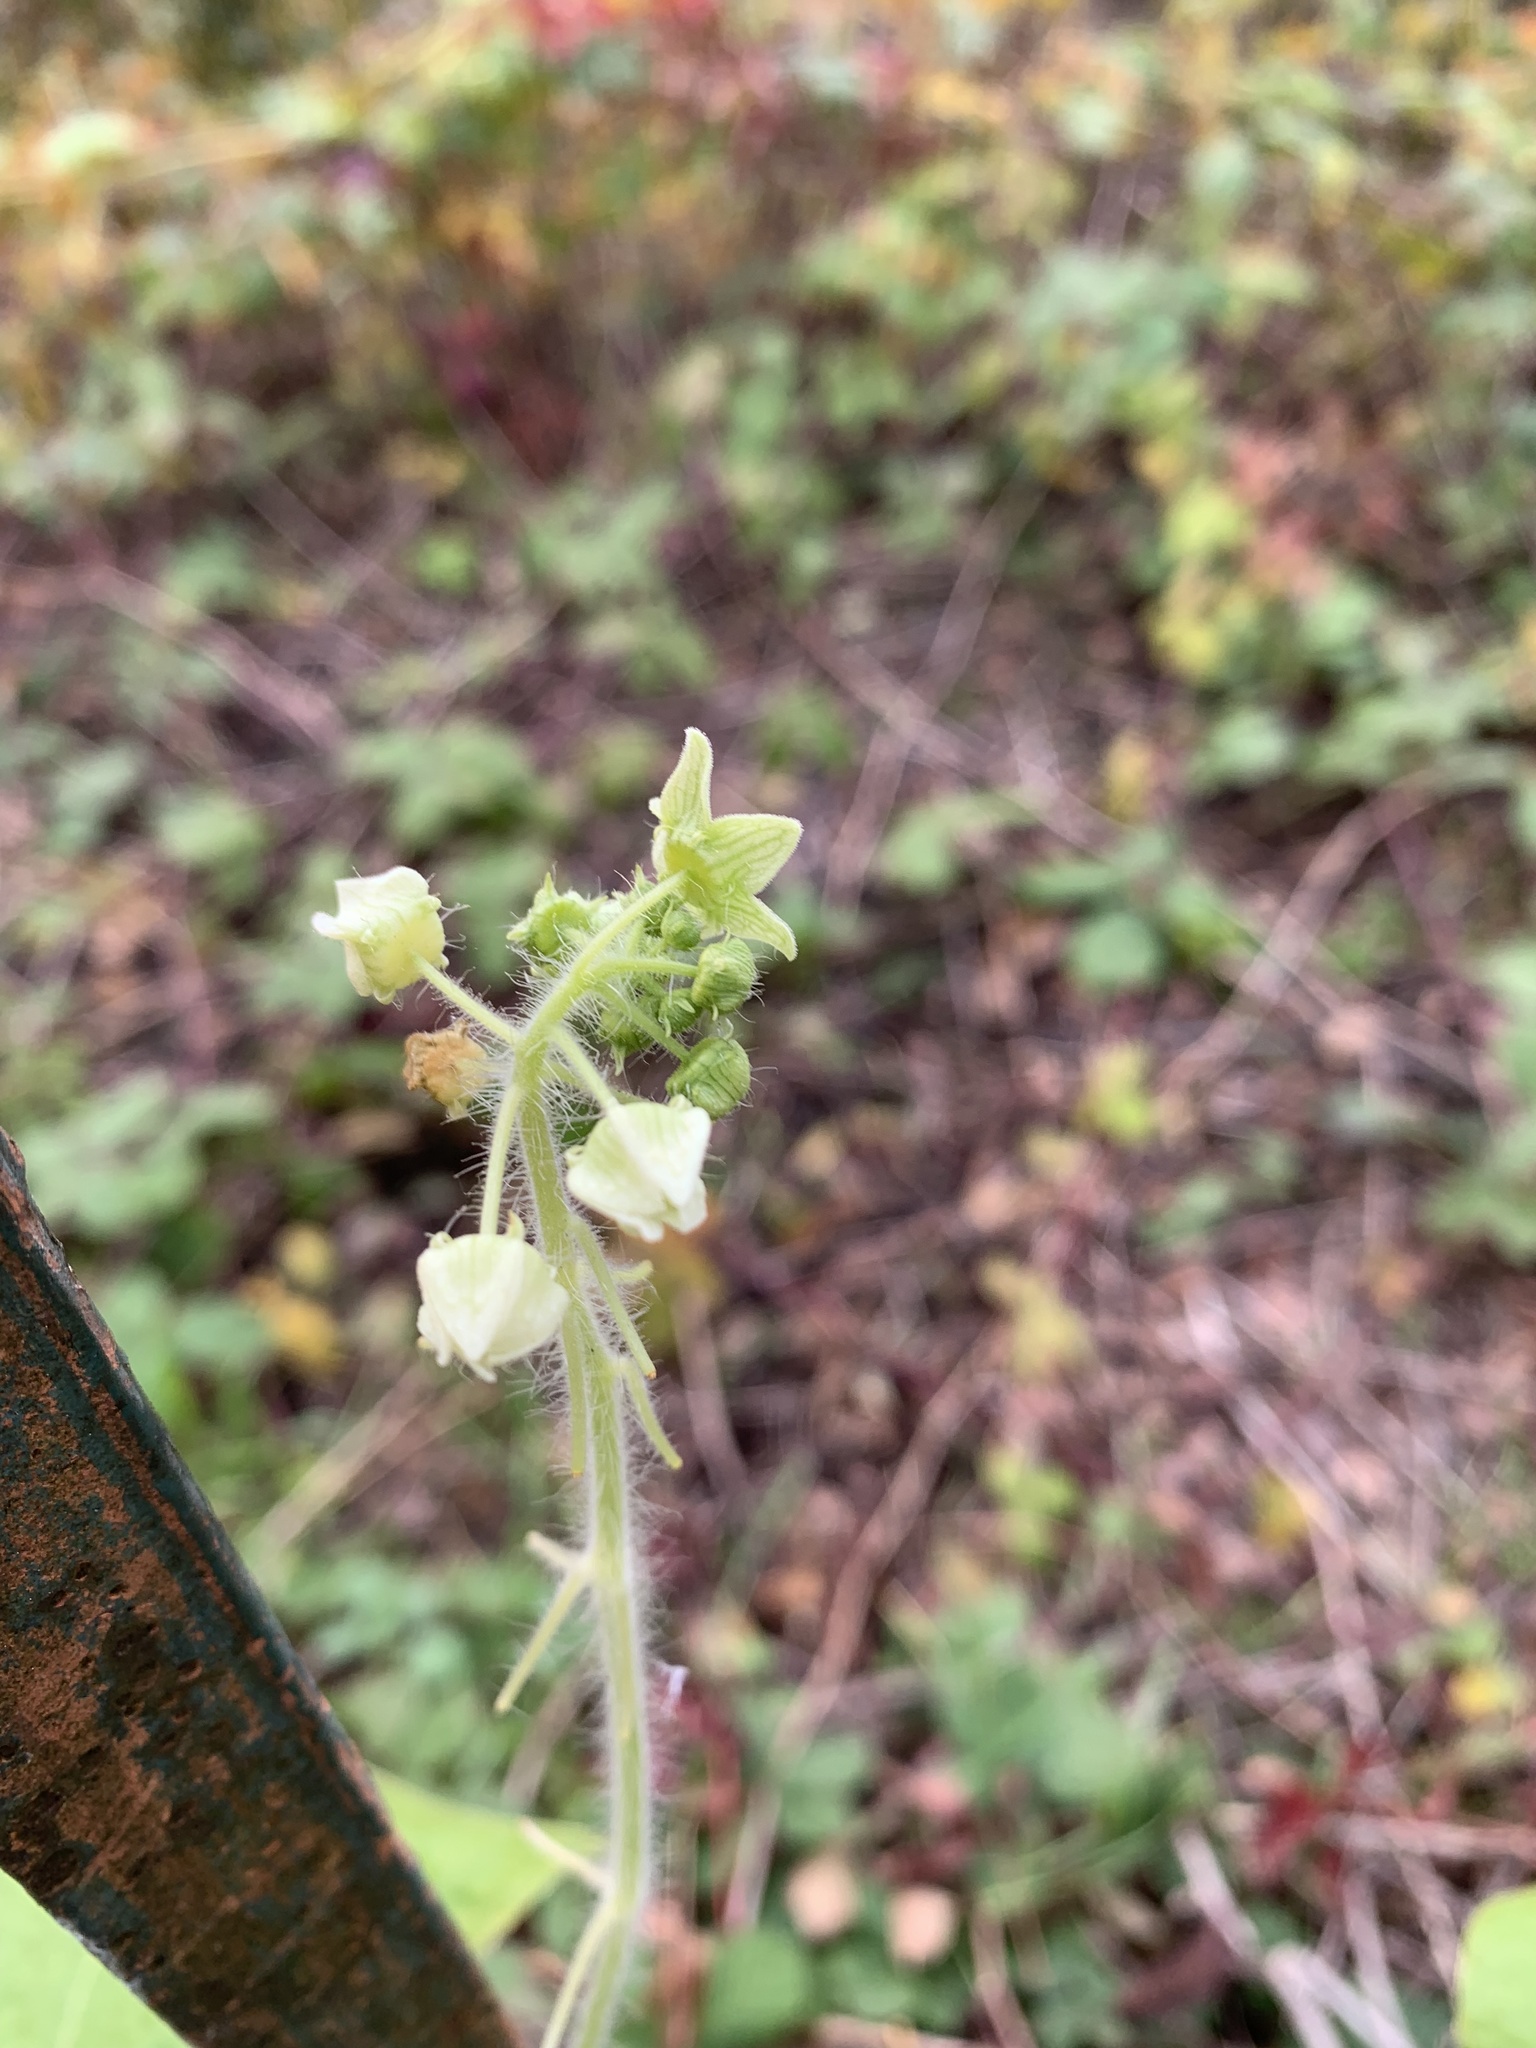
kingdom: Plantae
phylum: Tracheophyta
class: Magnoliopsida
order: Cucurbitales
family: Cucurbitaceae
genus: Sicyos
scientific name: Sicyos angulatus
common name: Angled burr cucumber
